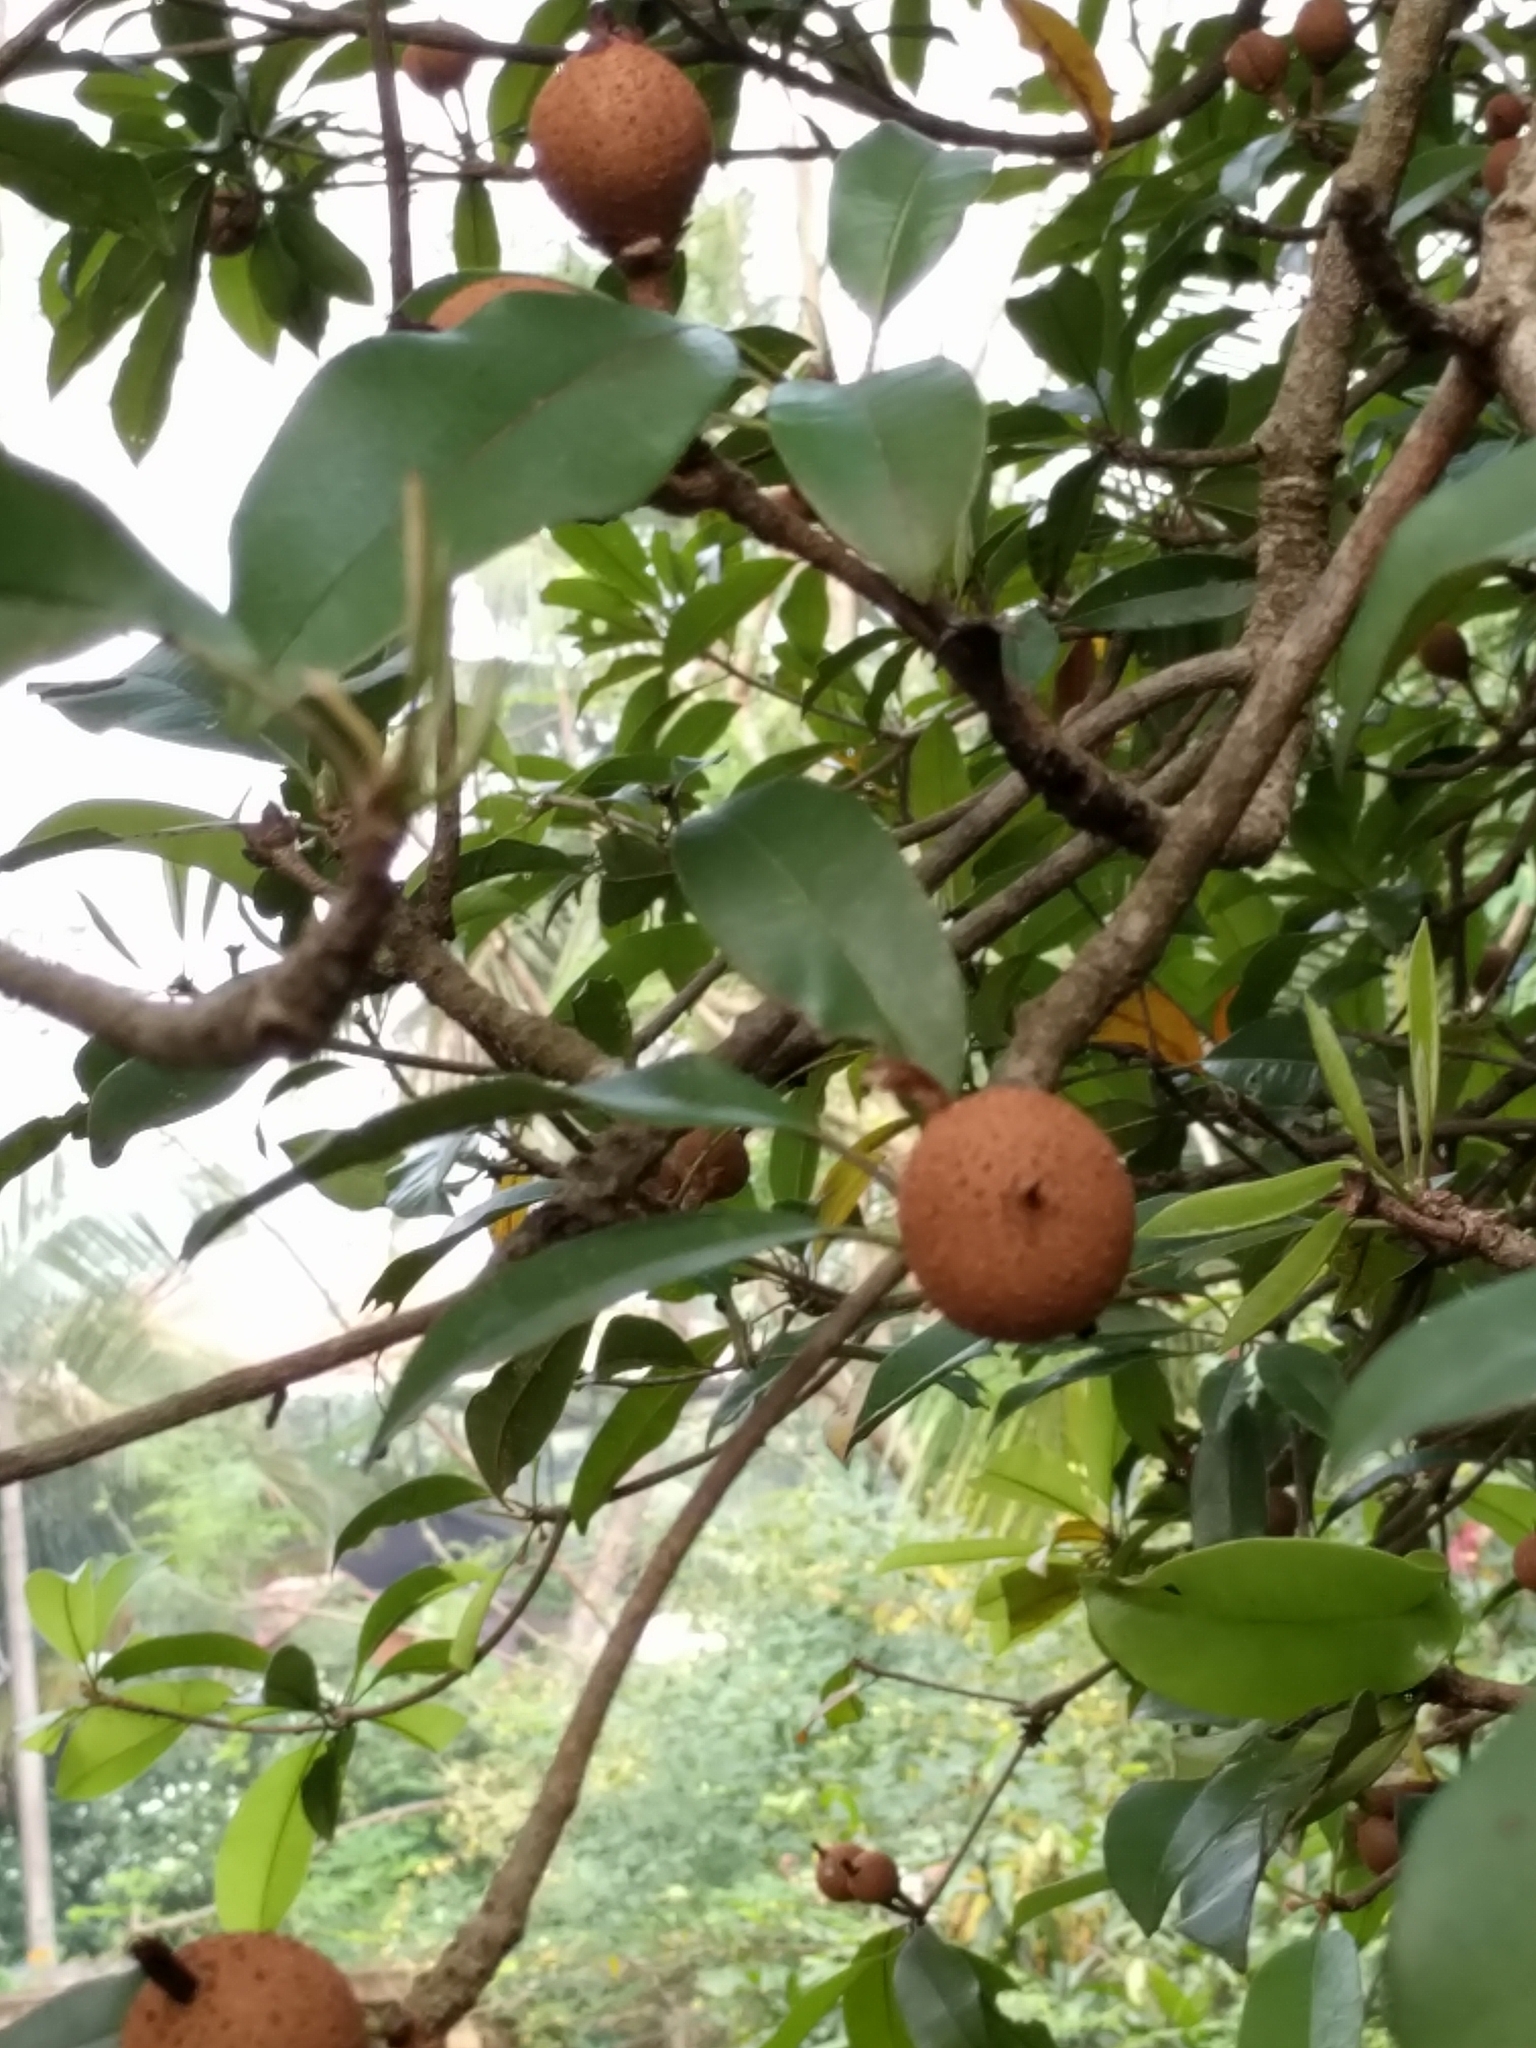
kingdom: Plantae
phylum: Tracheophyta
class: Magnoliopsida
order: Ericales
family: Sapotaceae
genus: Manilkara
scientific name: Manilkara zapota
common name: Sapodilla
